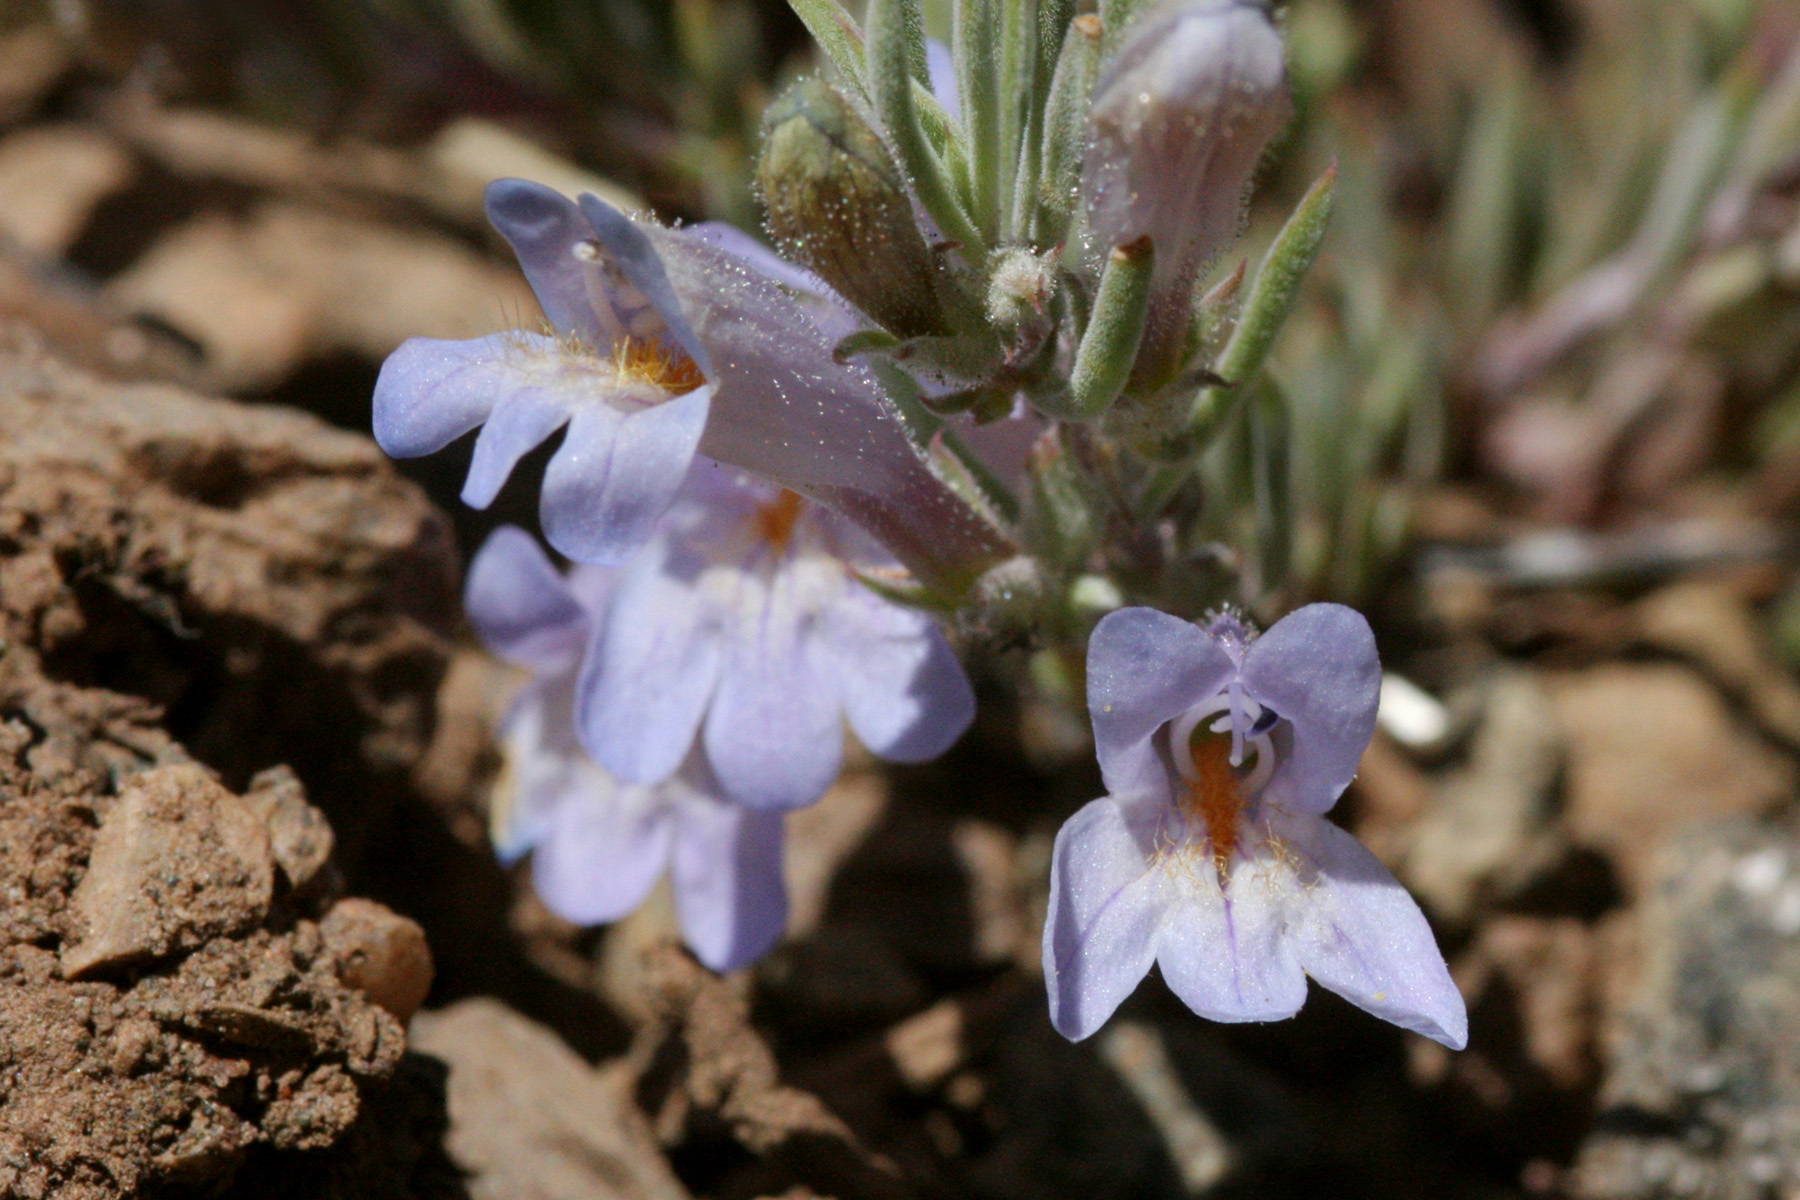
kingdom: Plantae
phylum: Tracheophyta
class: Magnoliopsida
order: Lamiales
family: Plantaginaceae
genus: Penstemon
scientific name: Penstemon caespitosus
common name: Mat penstemon
